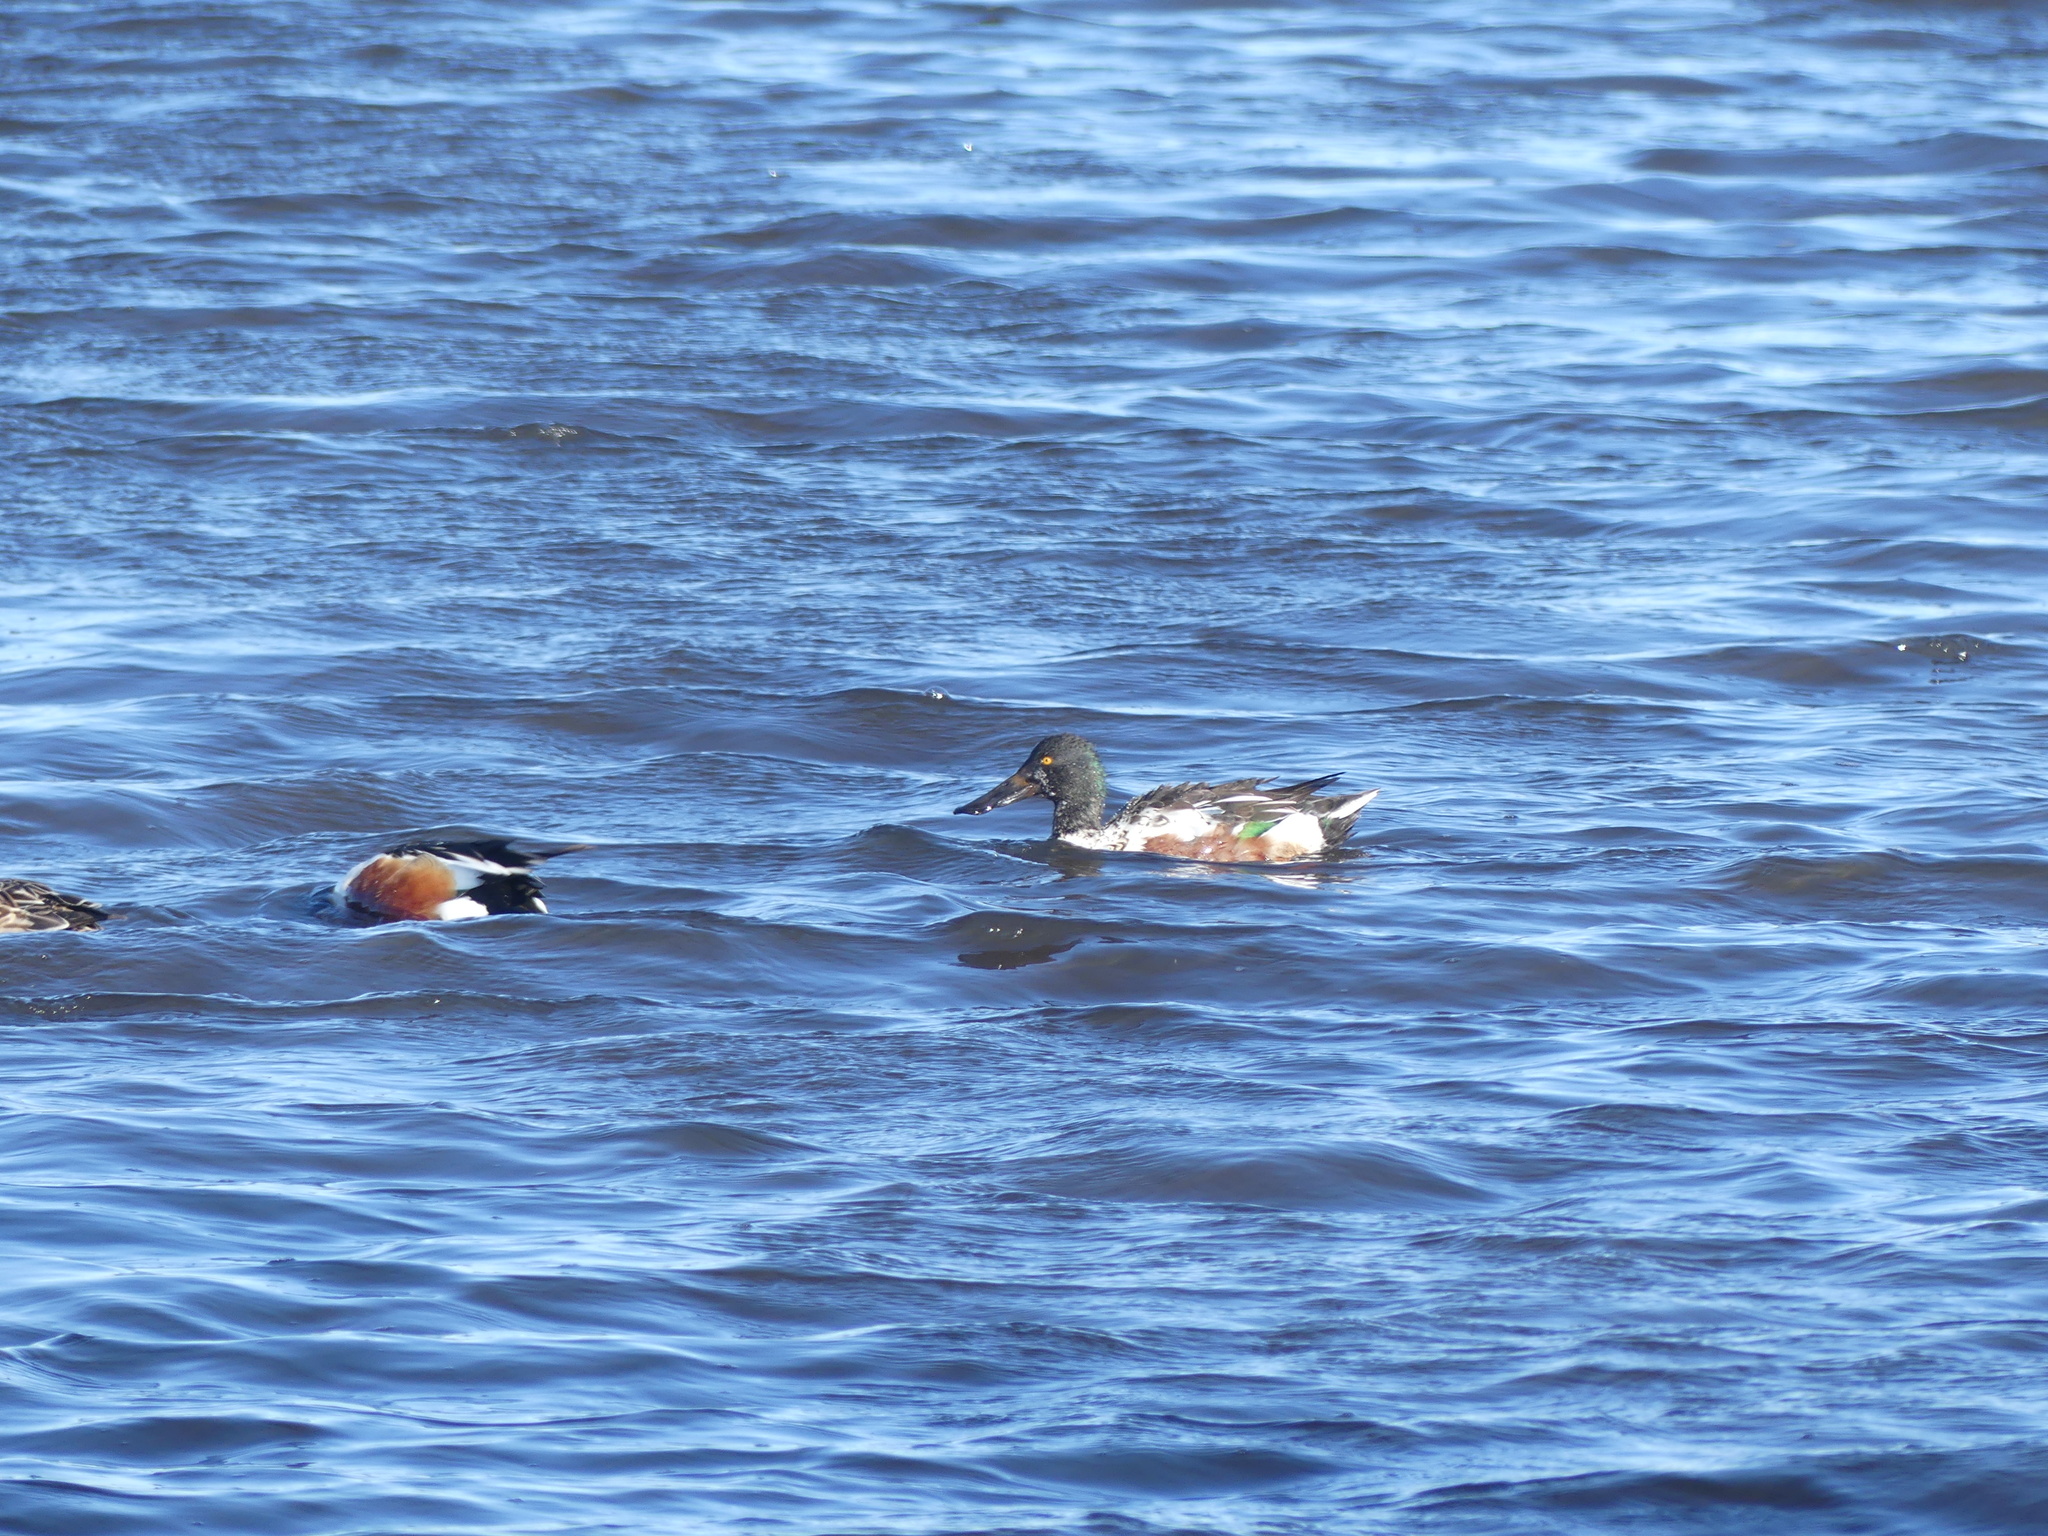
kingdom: Animalia
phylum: Chordata
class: Aves
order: Anseriformes
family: Anatidae
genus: Spatula
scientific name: Spatula clypeata
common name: Northern shoveler
